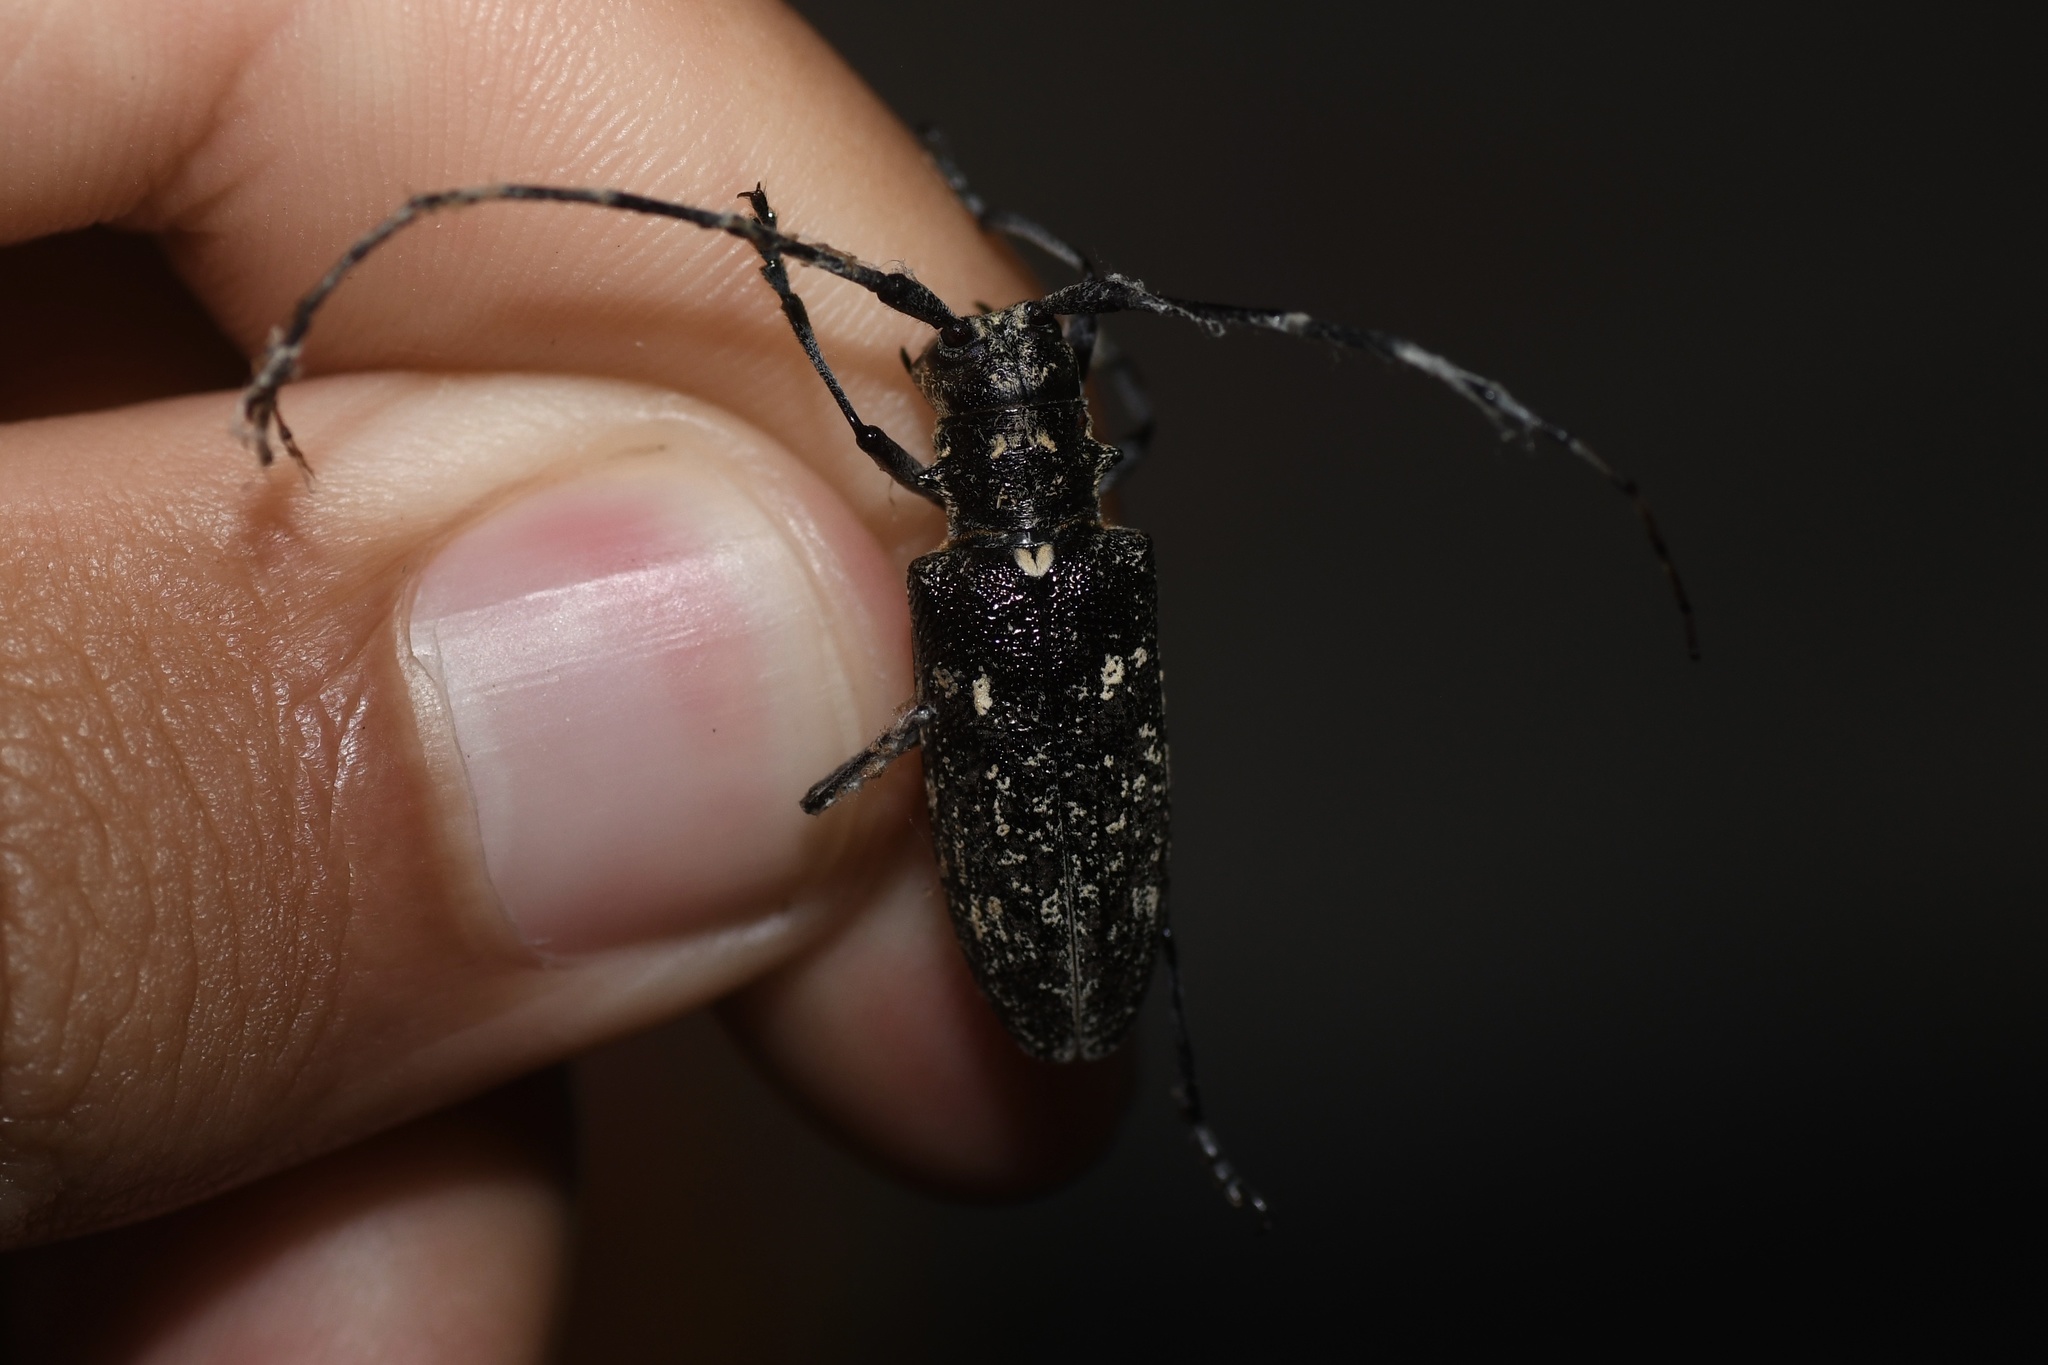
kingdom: Animalia
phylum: Arthropoda
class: Insecta
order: Coleoptera
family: Cerambycidae
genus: Monochamus
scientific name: Monochamus scutellatus
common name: White-spotted sawyer beetle
